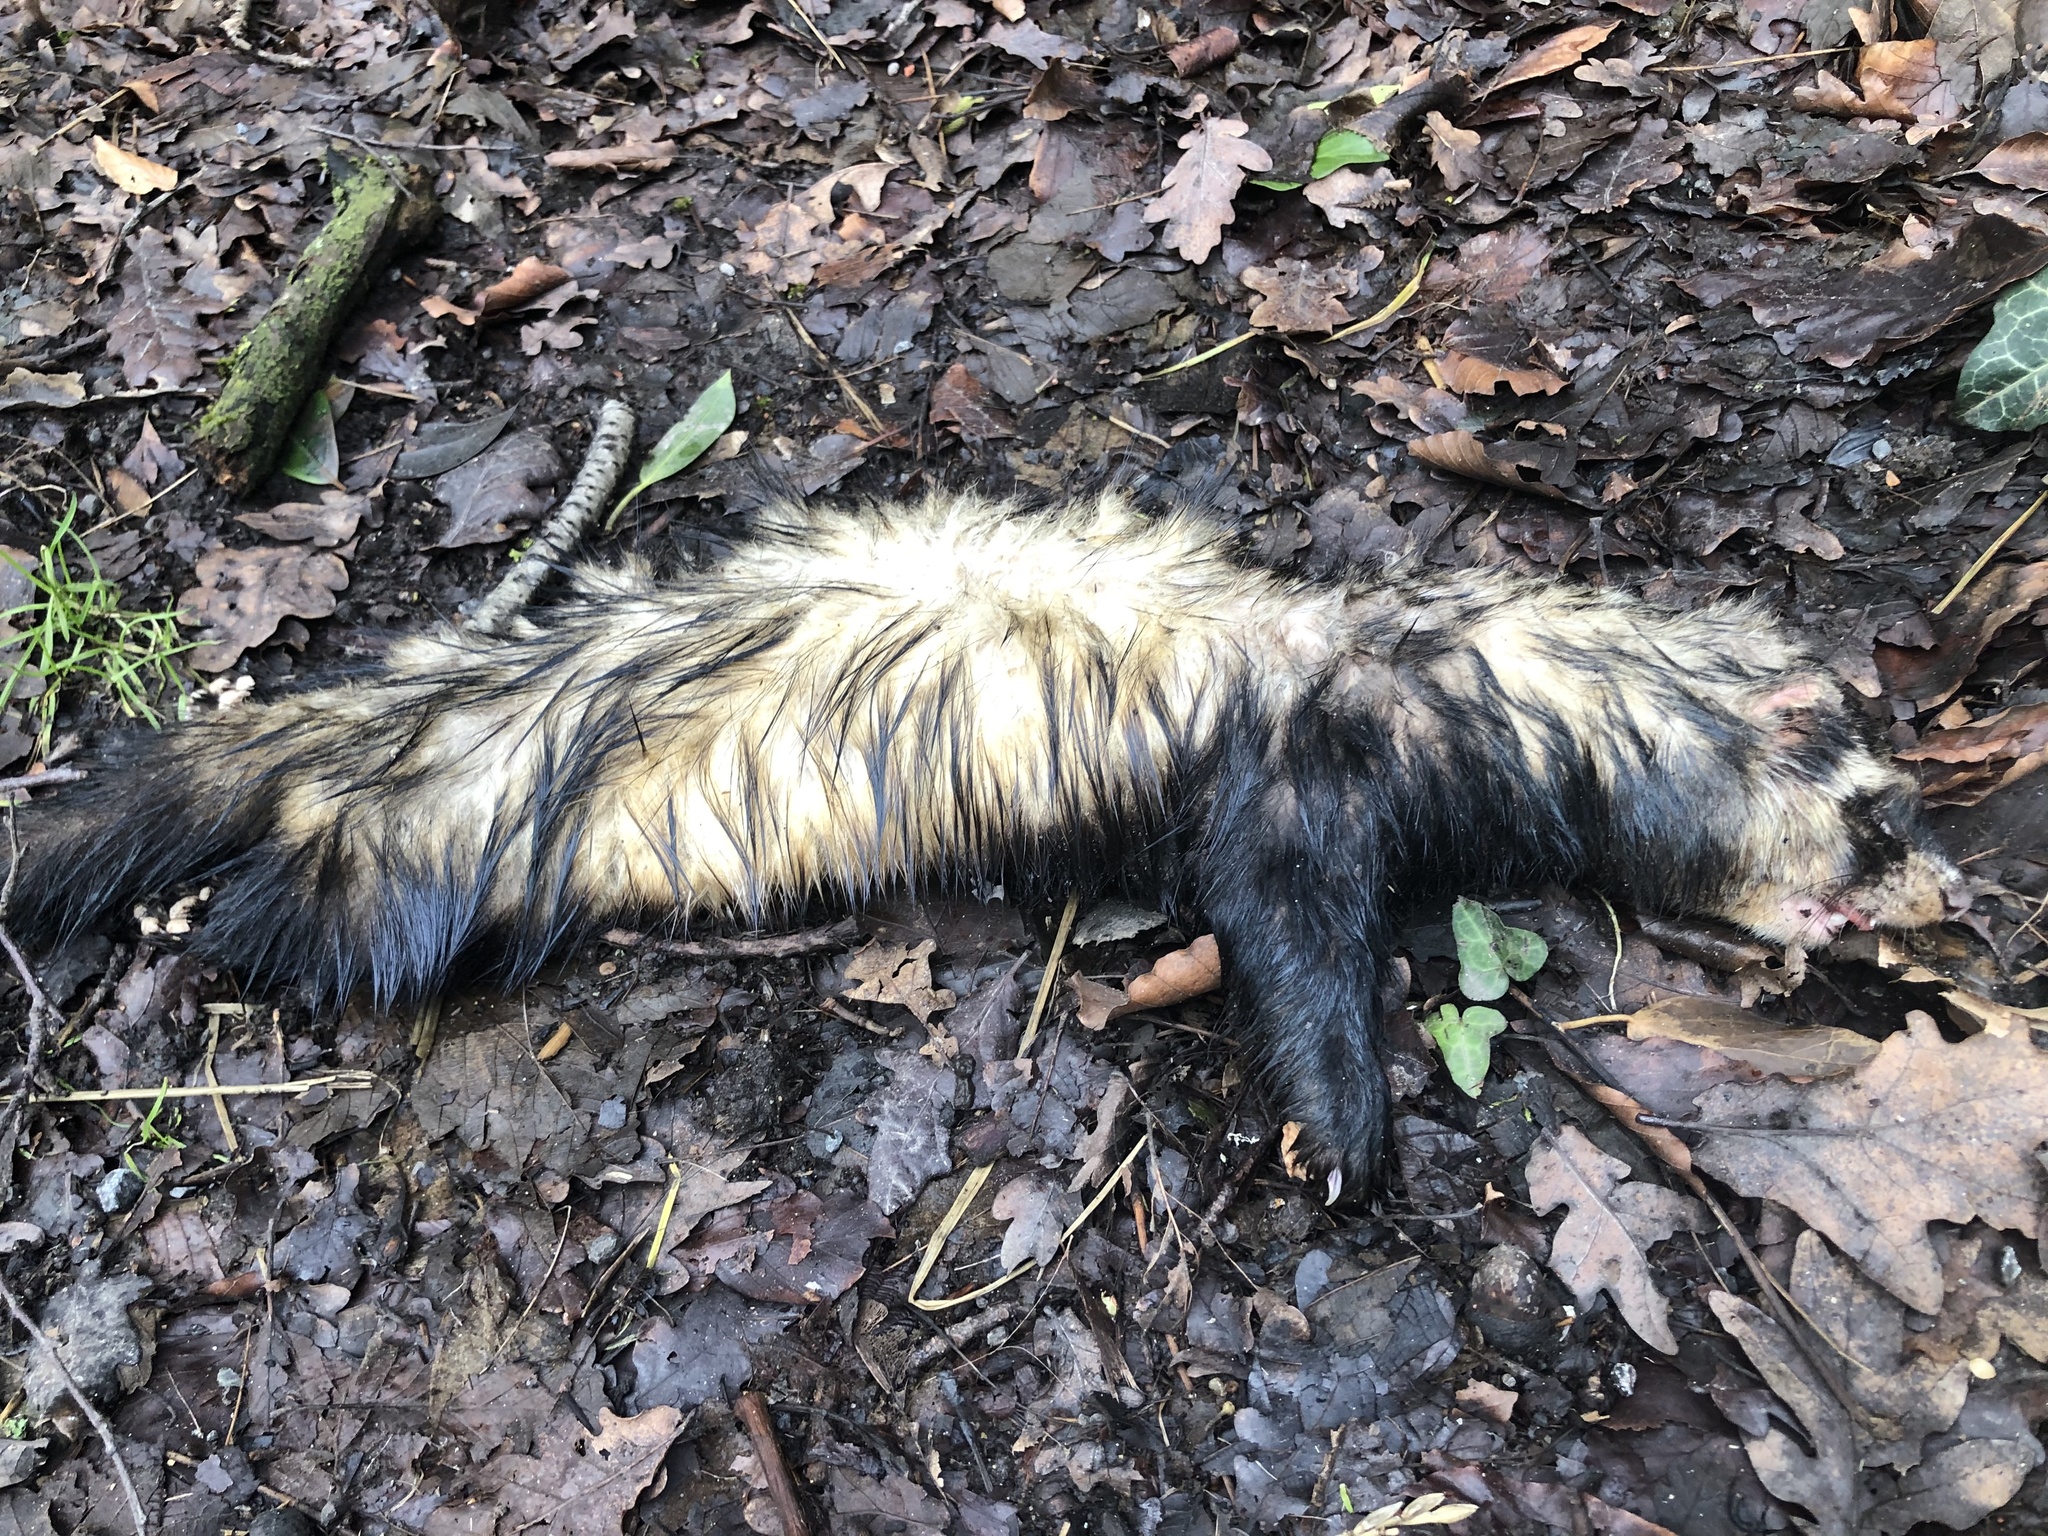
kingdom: Animalia
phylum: Chordata
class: Mammalia
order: Carnivora
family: Mustelidae
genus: Mustela
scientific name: Mustela putorius
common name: European polecat
